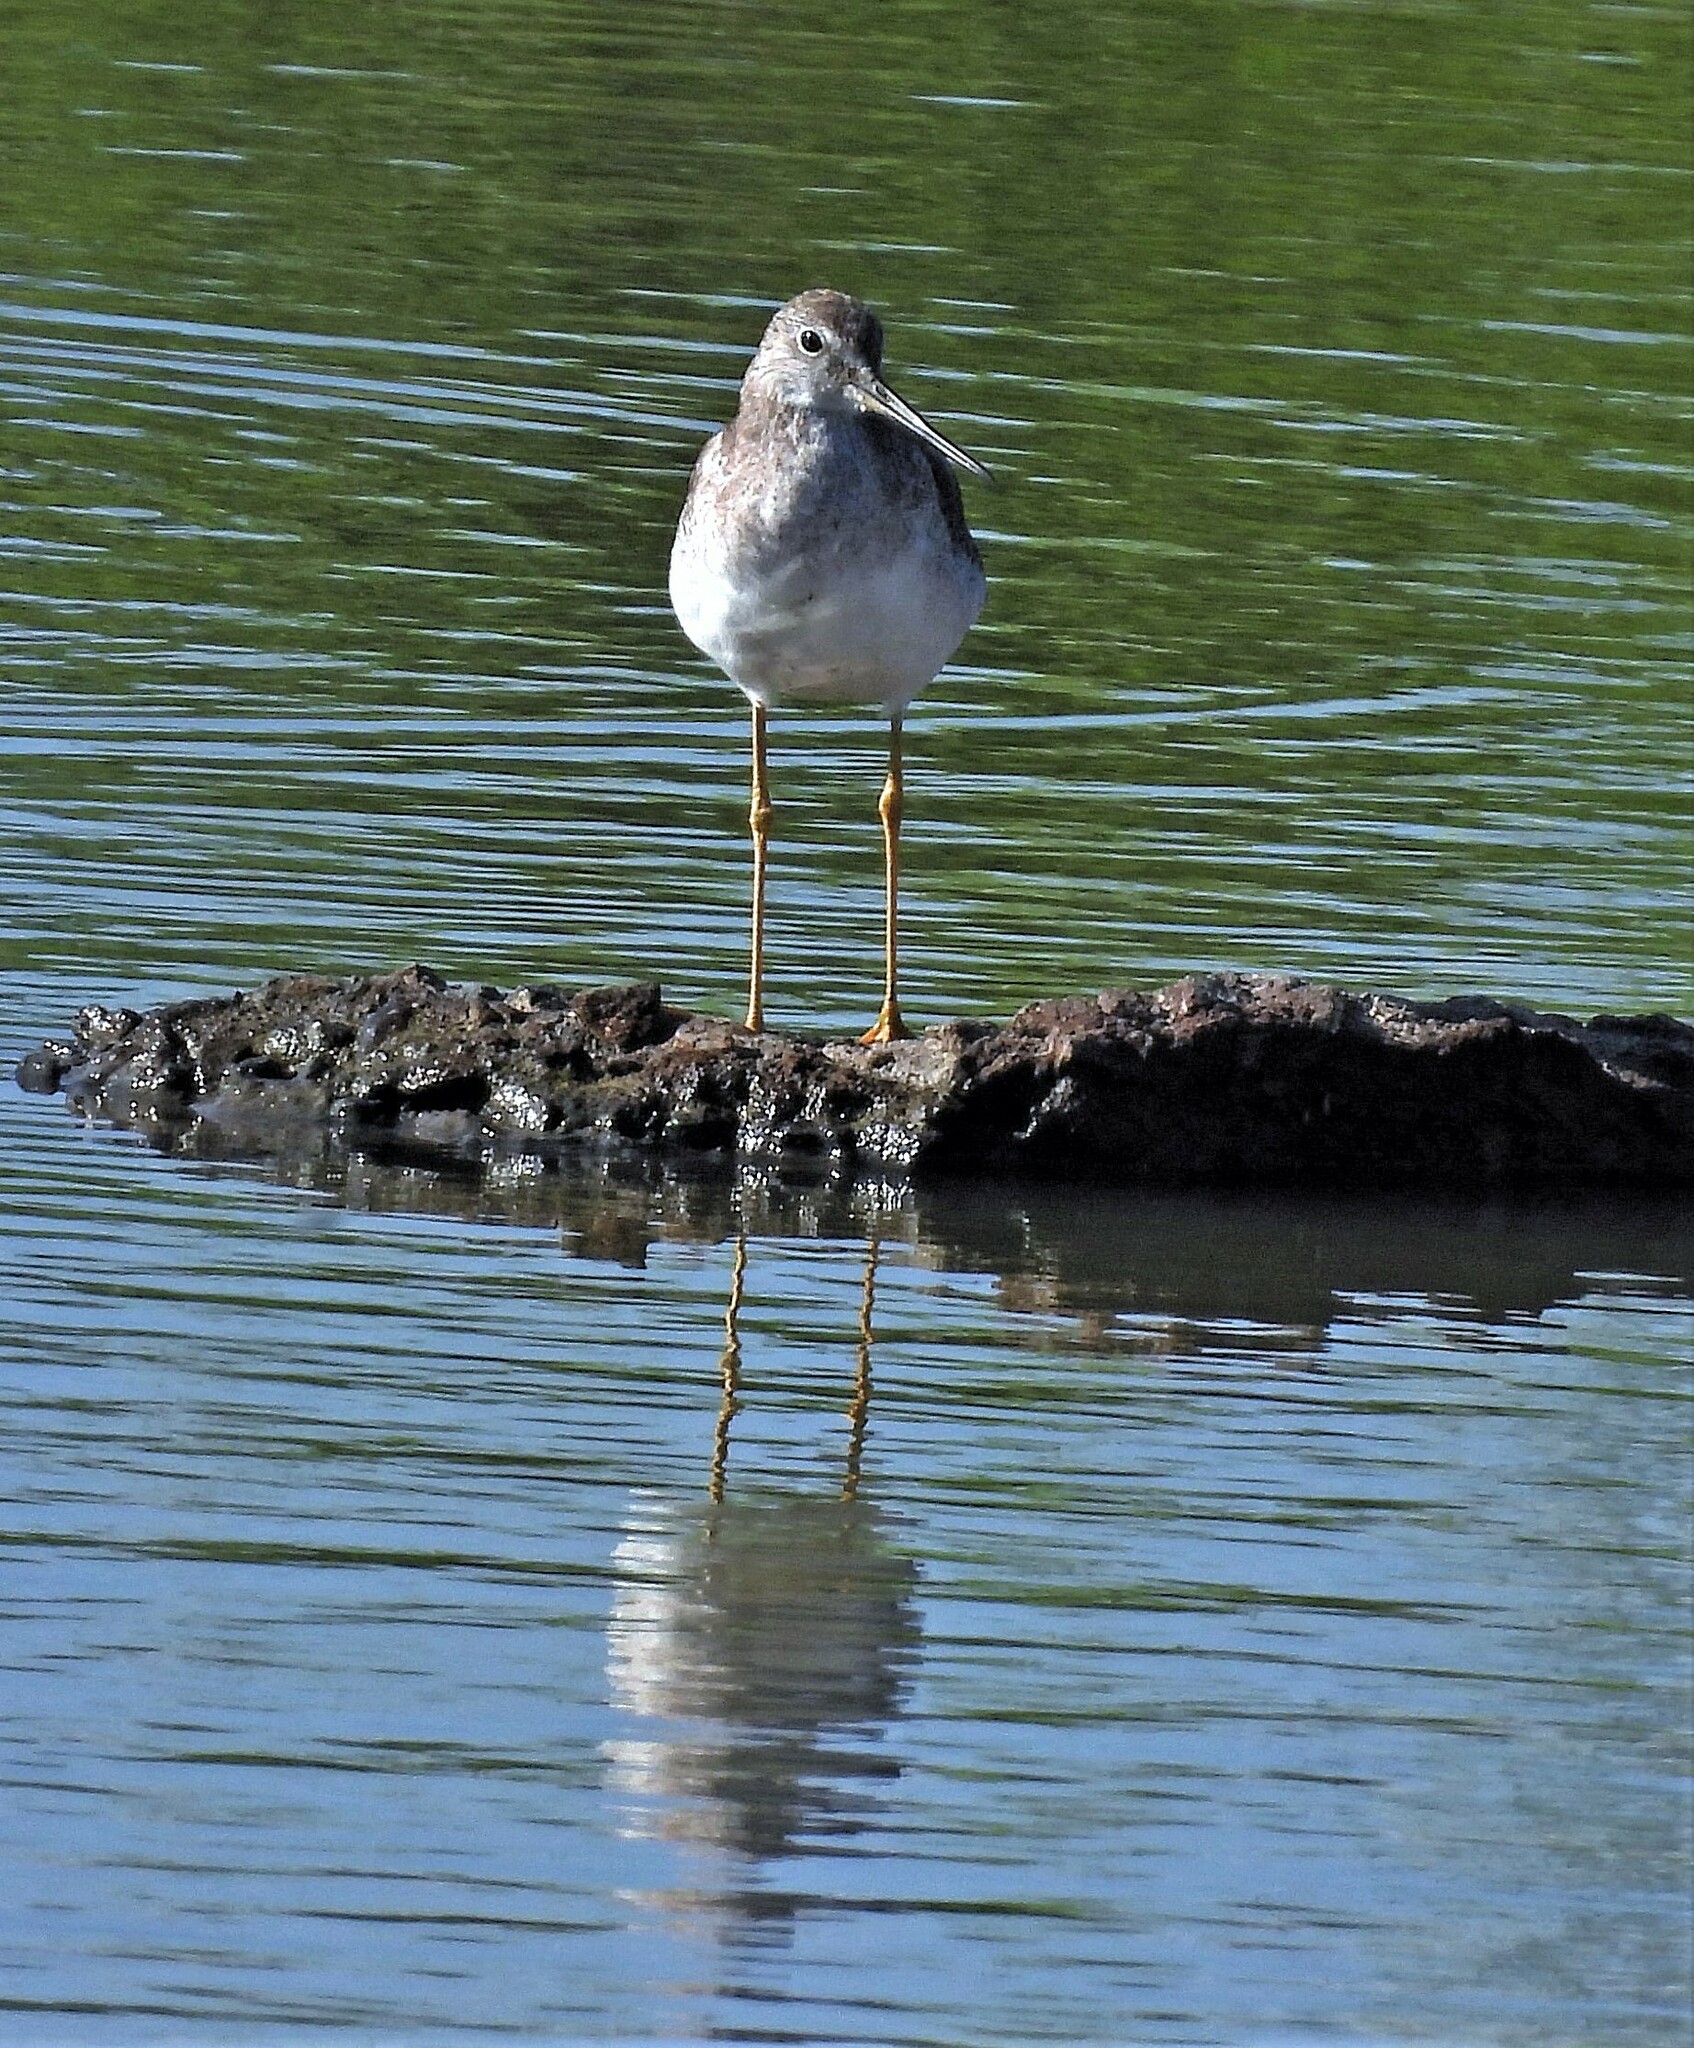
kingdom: Animalia
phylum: Chordata
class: Aves
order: Charadriiformes
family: Scolopacidae
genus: Tringa
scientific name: Tringa melanoleuca
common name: Greater yellowlegs
